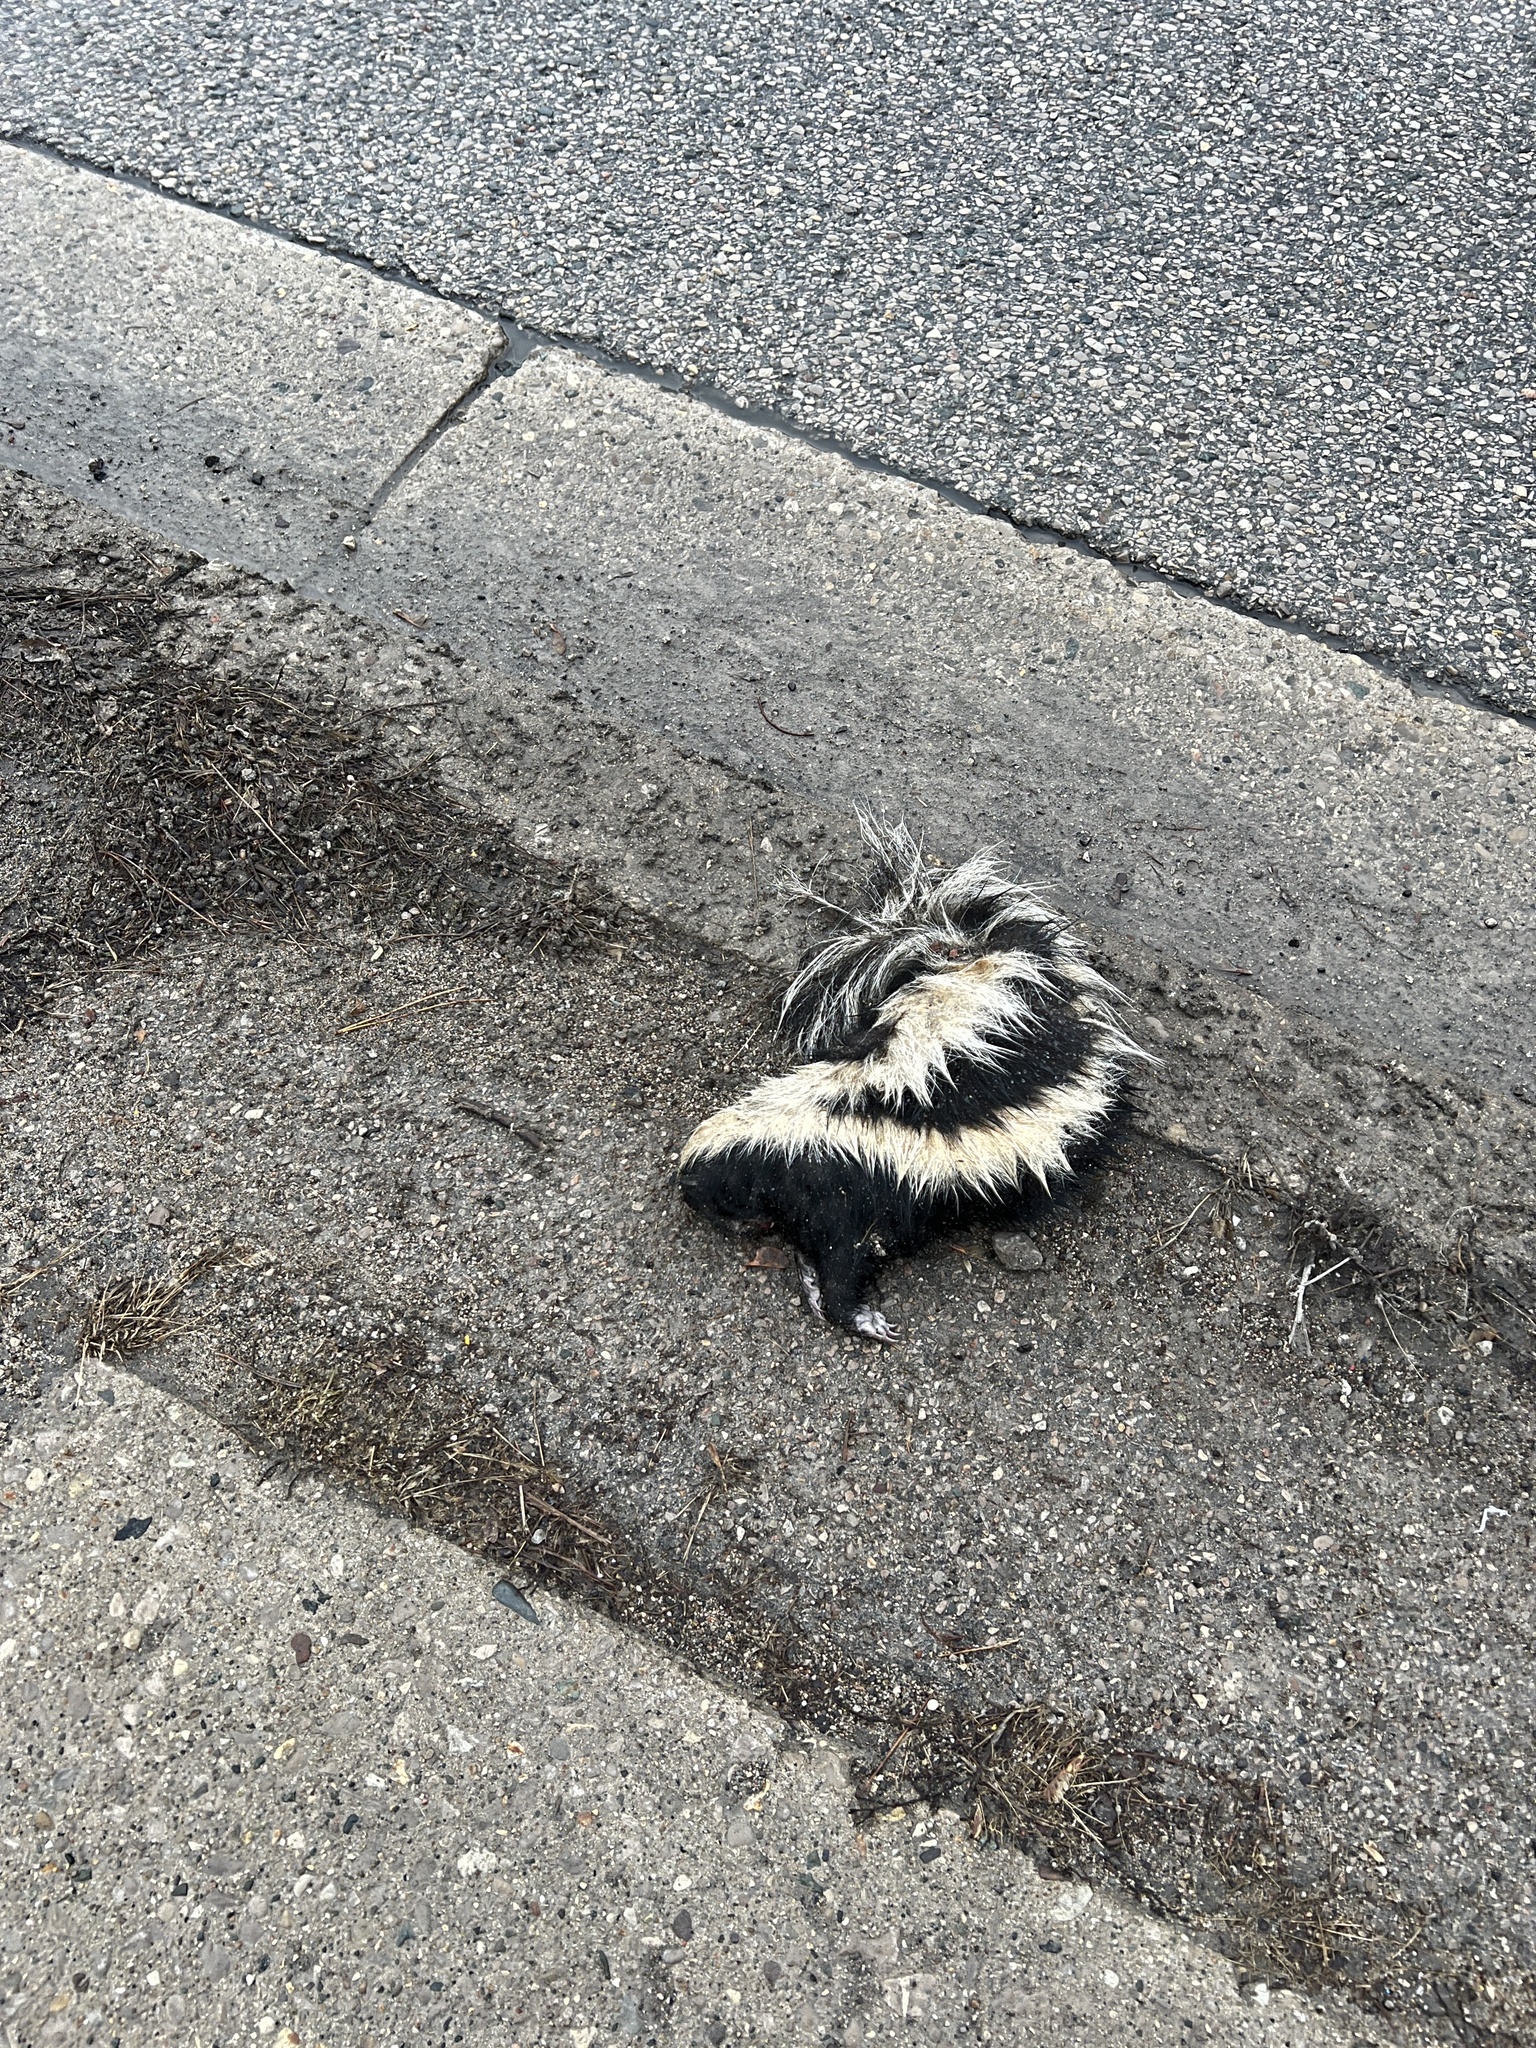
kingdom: Animalia
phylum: Chordata
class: Mammalia
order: Carnivora
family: Mephitidae
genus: Mephitis
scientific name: Mephitis mephitis
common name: Striped skunk
